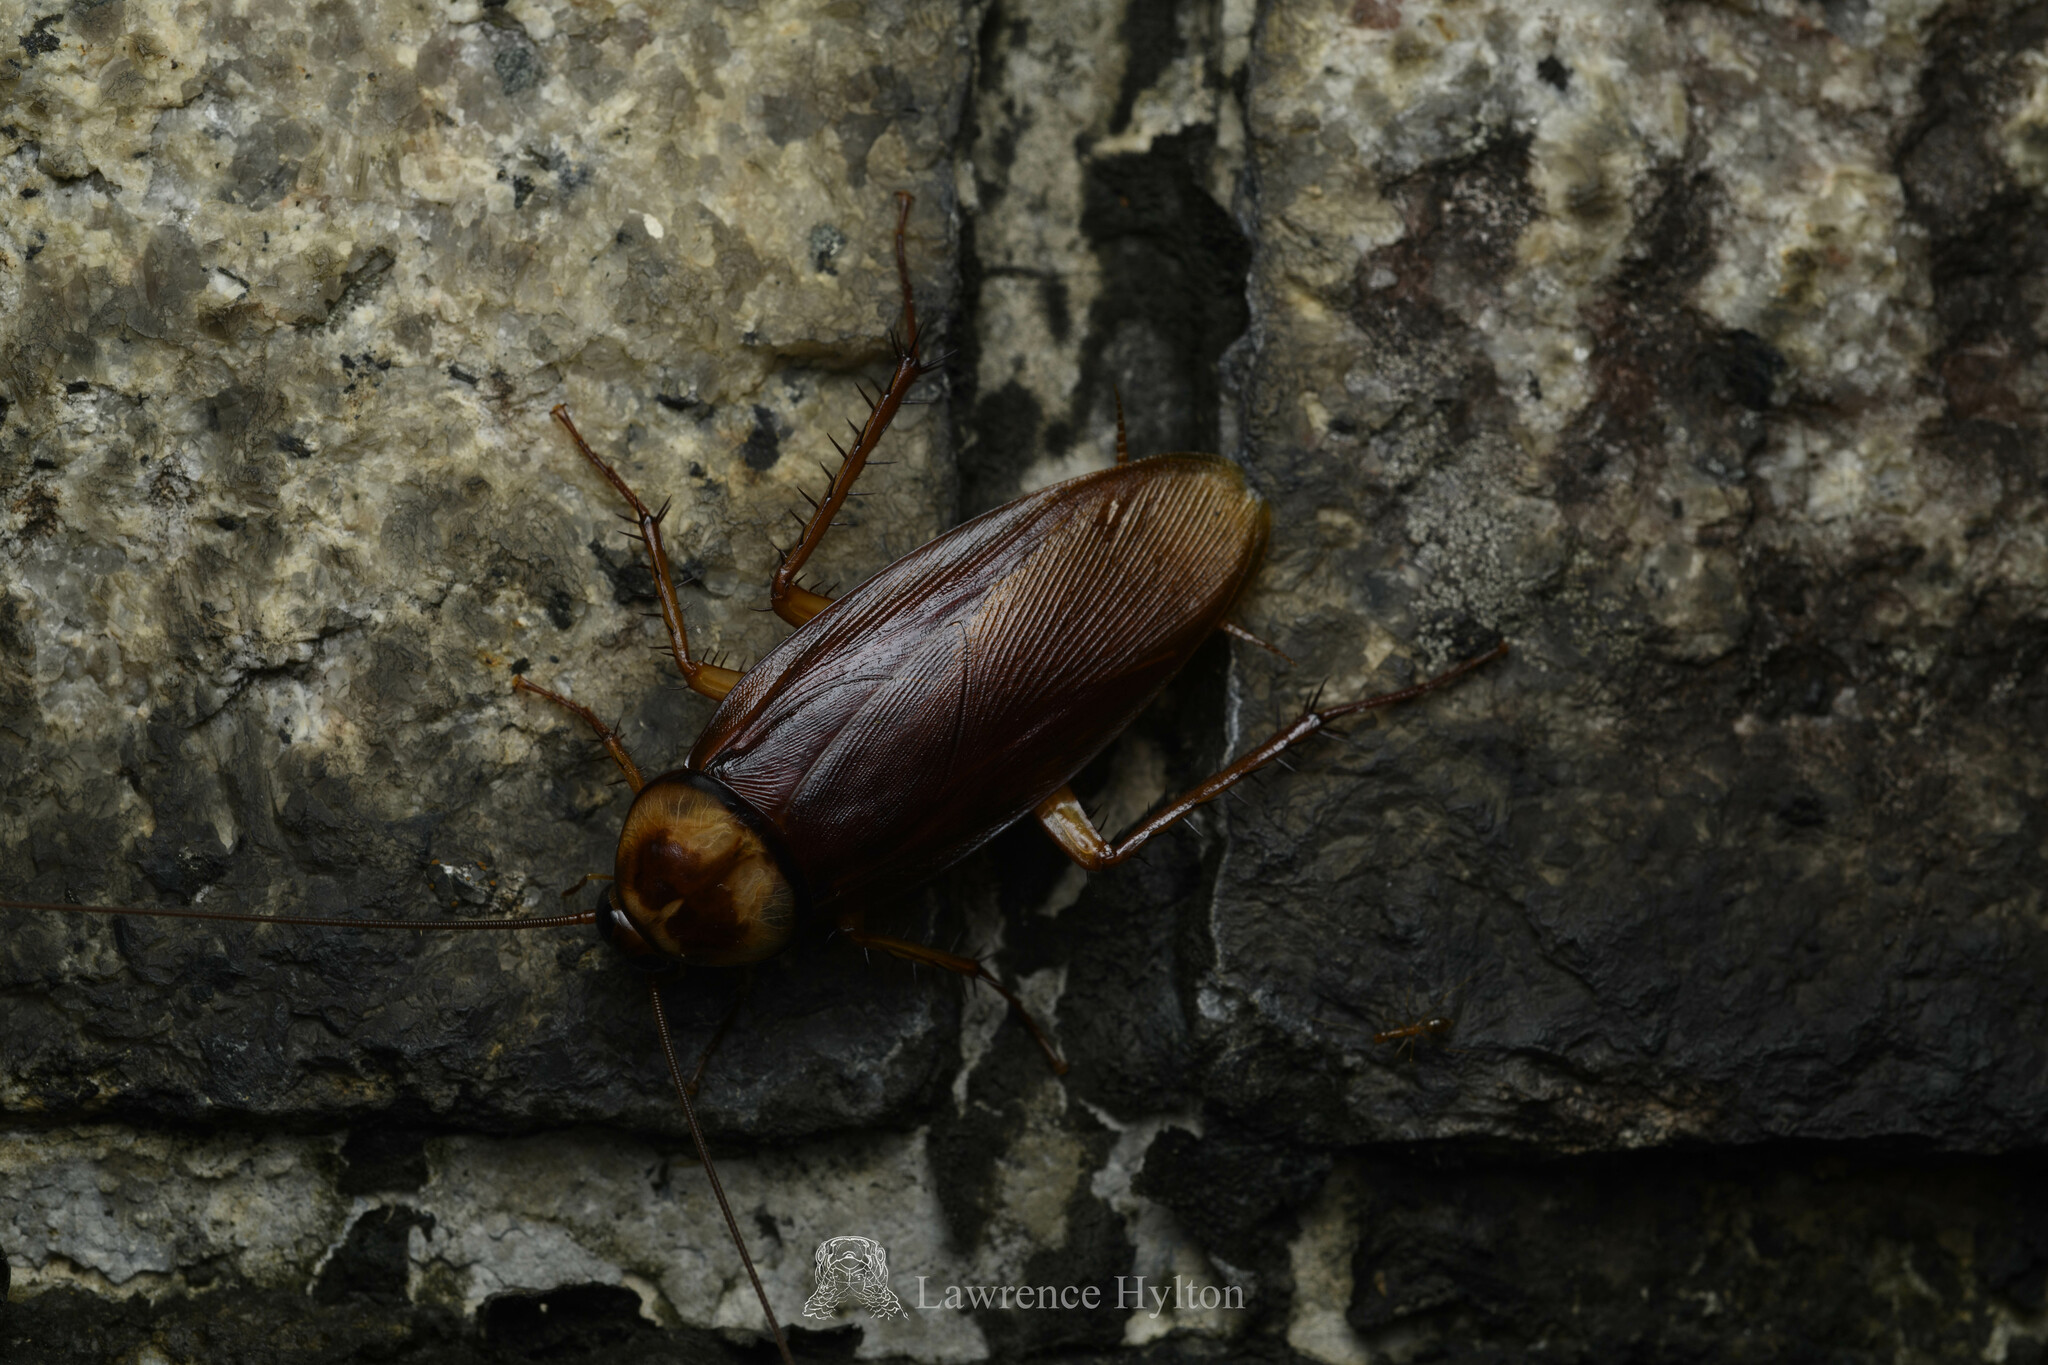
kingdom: Animalia
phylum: Arthropoda
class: Insecta
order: Blattodea
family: Blattidae
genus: Periplaneta
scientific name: Periplaneta americana
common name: American cockroach
